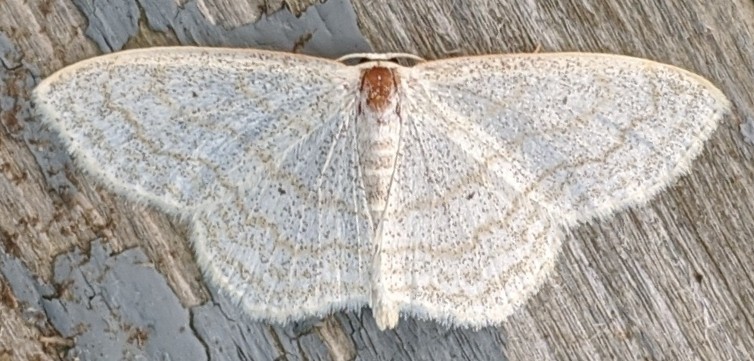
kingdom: Animalia
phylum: Arthropoda
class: Insecta
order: Lepidoptera
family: Geometridae
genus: Scopula
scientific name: Scopula limboundata
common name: Large lace border
